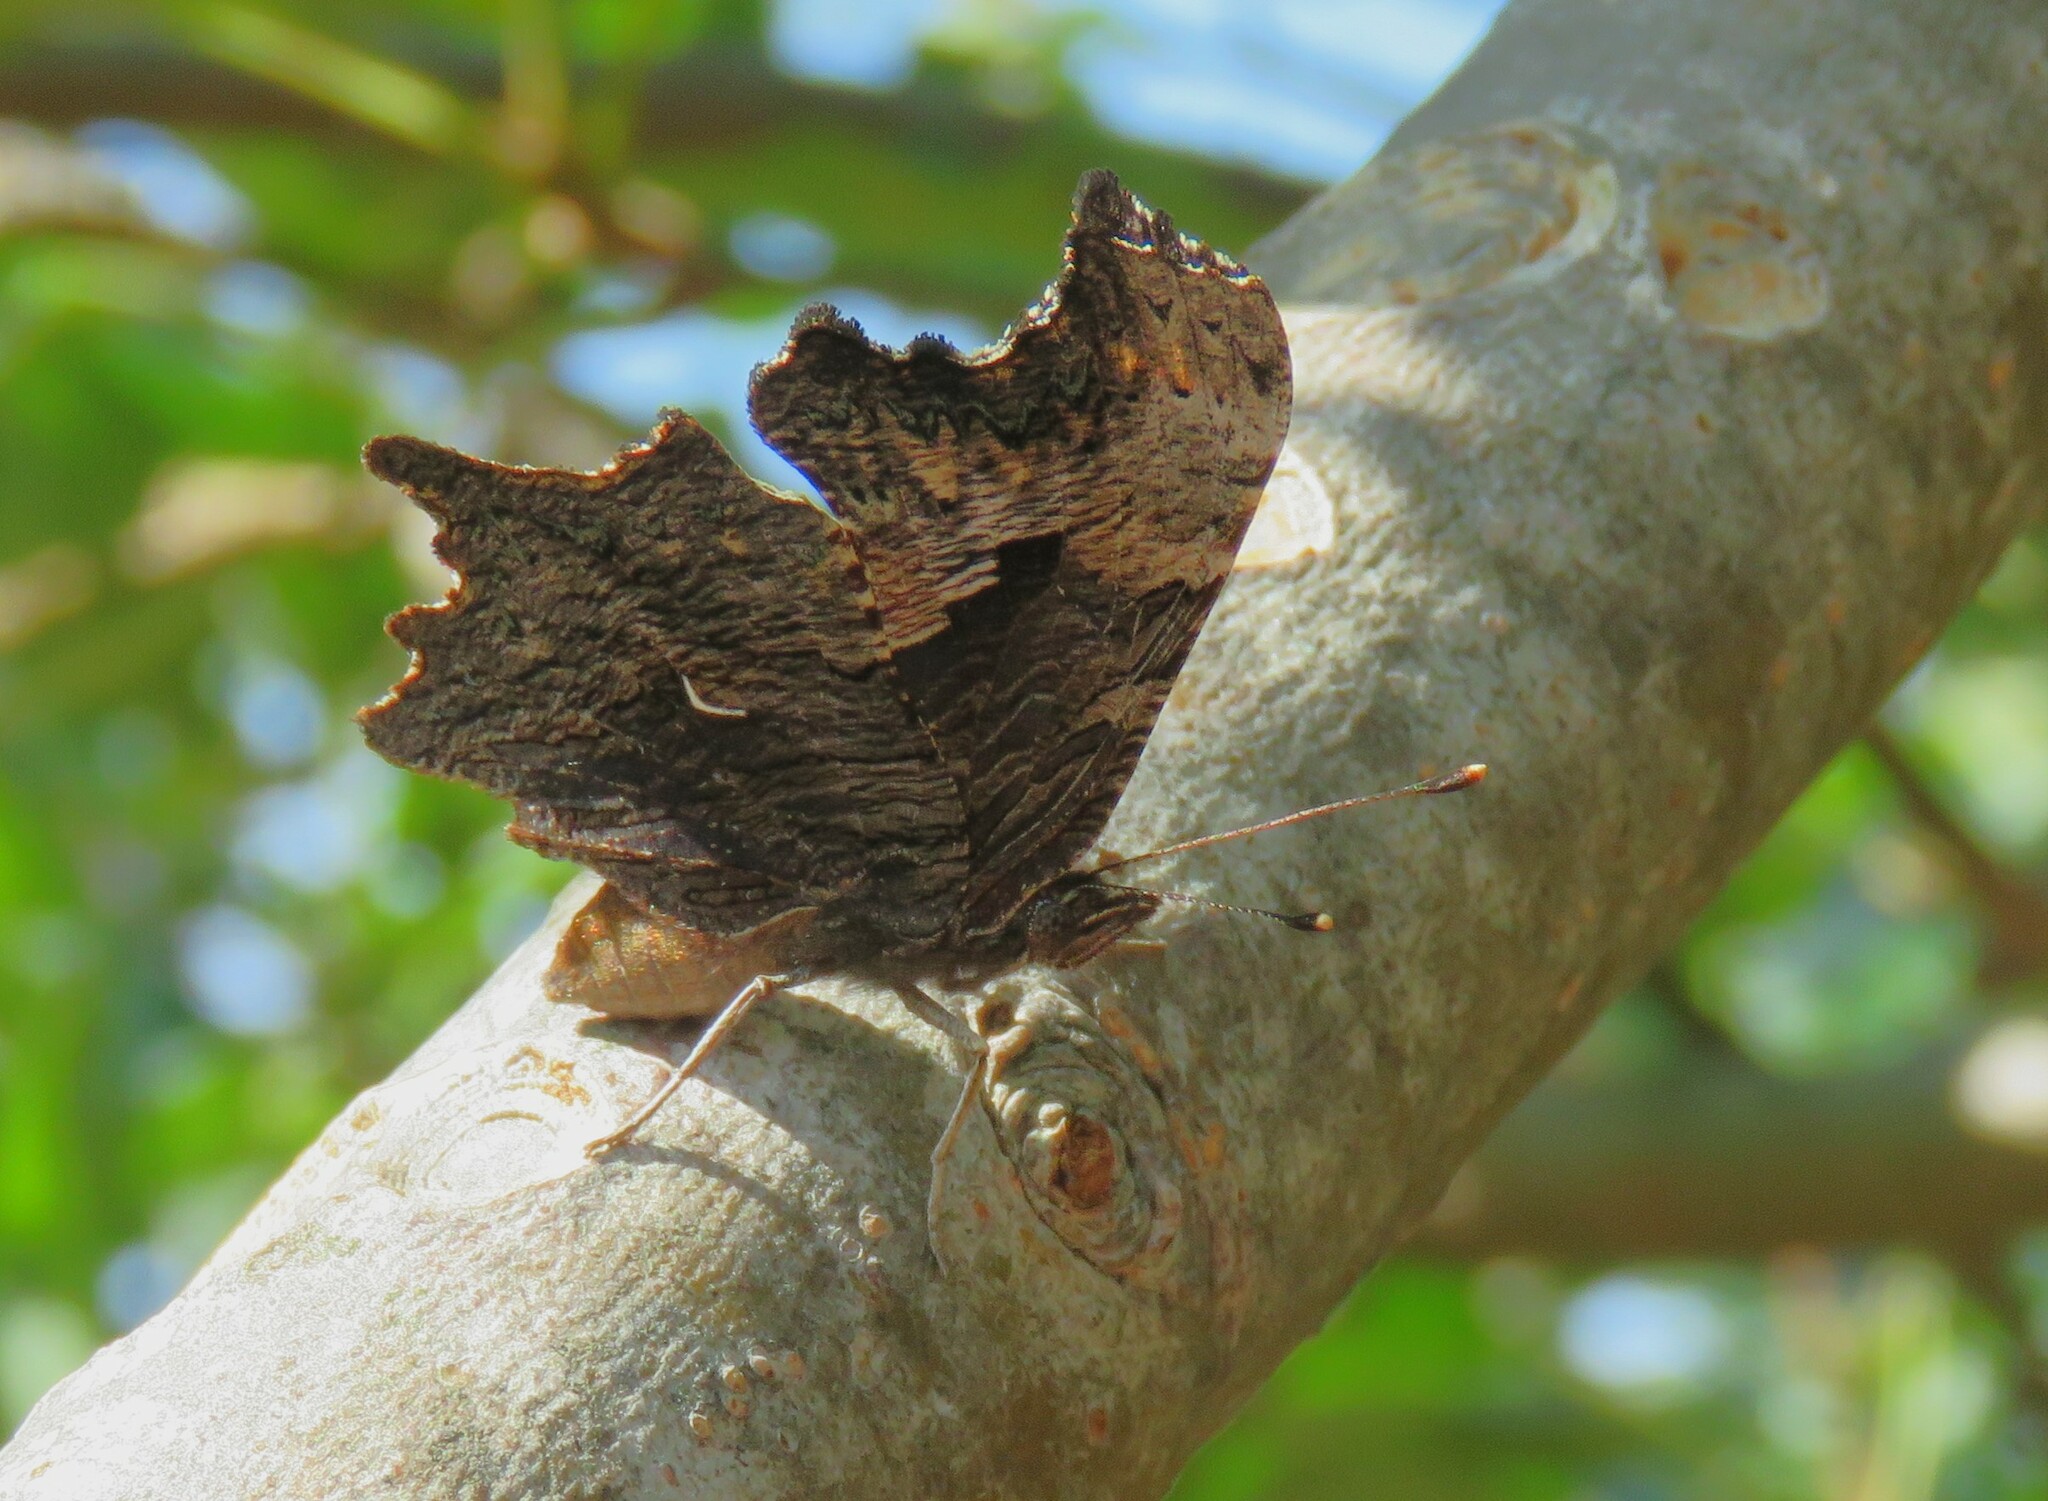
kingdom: Animalia
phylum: Arthropoda
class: Insecta
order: Lepidoptera
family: Nymphalidae
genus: Polygonia
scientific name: Polygonia progne
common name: Gray comma
